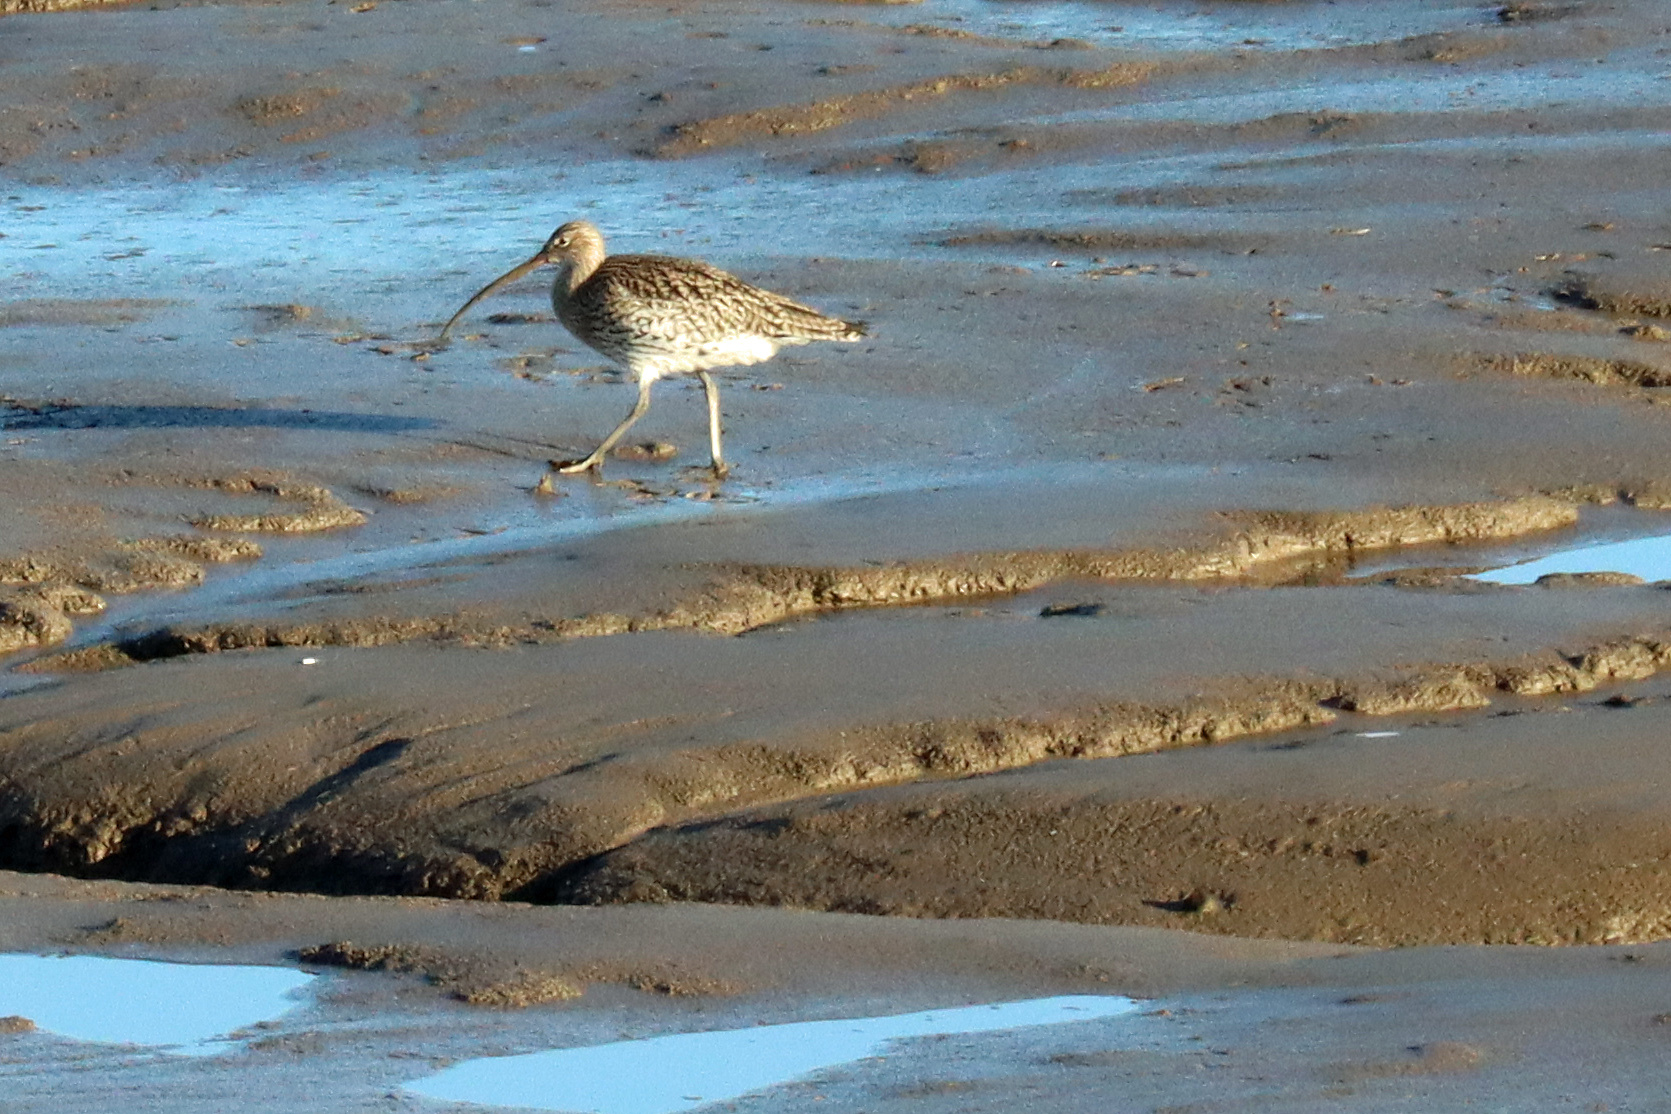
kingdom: Animalia
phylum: Chordata
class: Aves
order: Charadriiformes
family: Scolopacidae
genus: Numenius
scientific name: Numenius arquata
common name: Eurasian curlew
